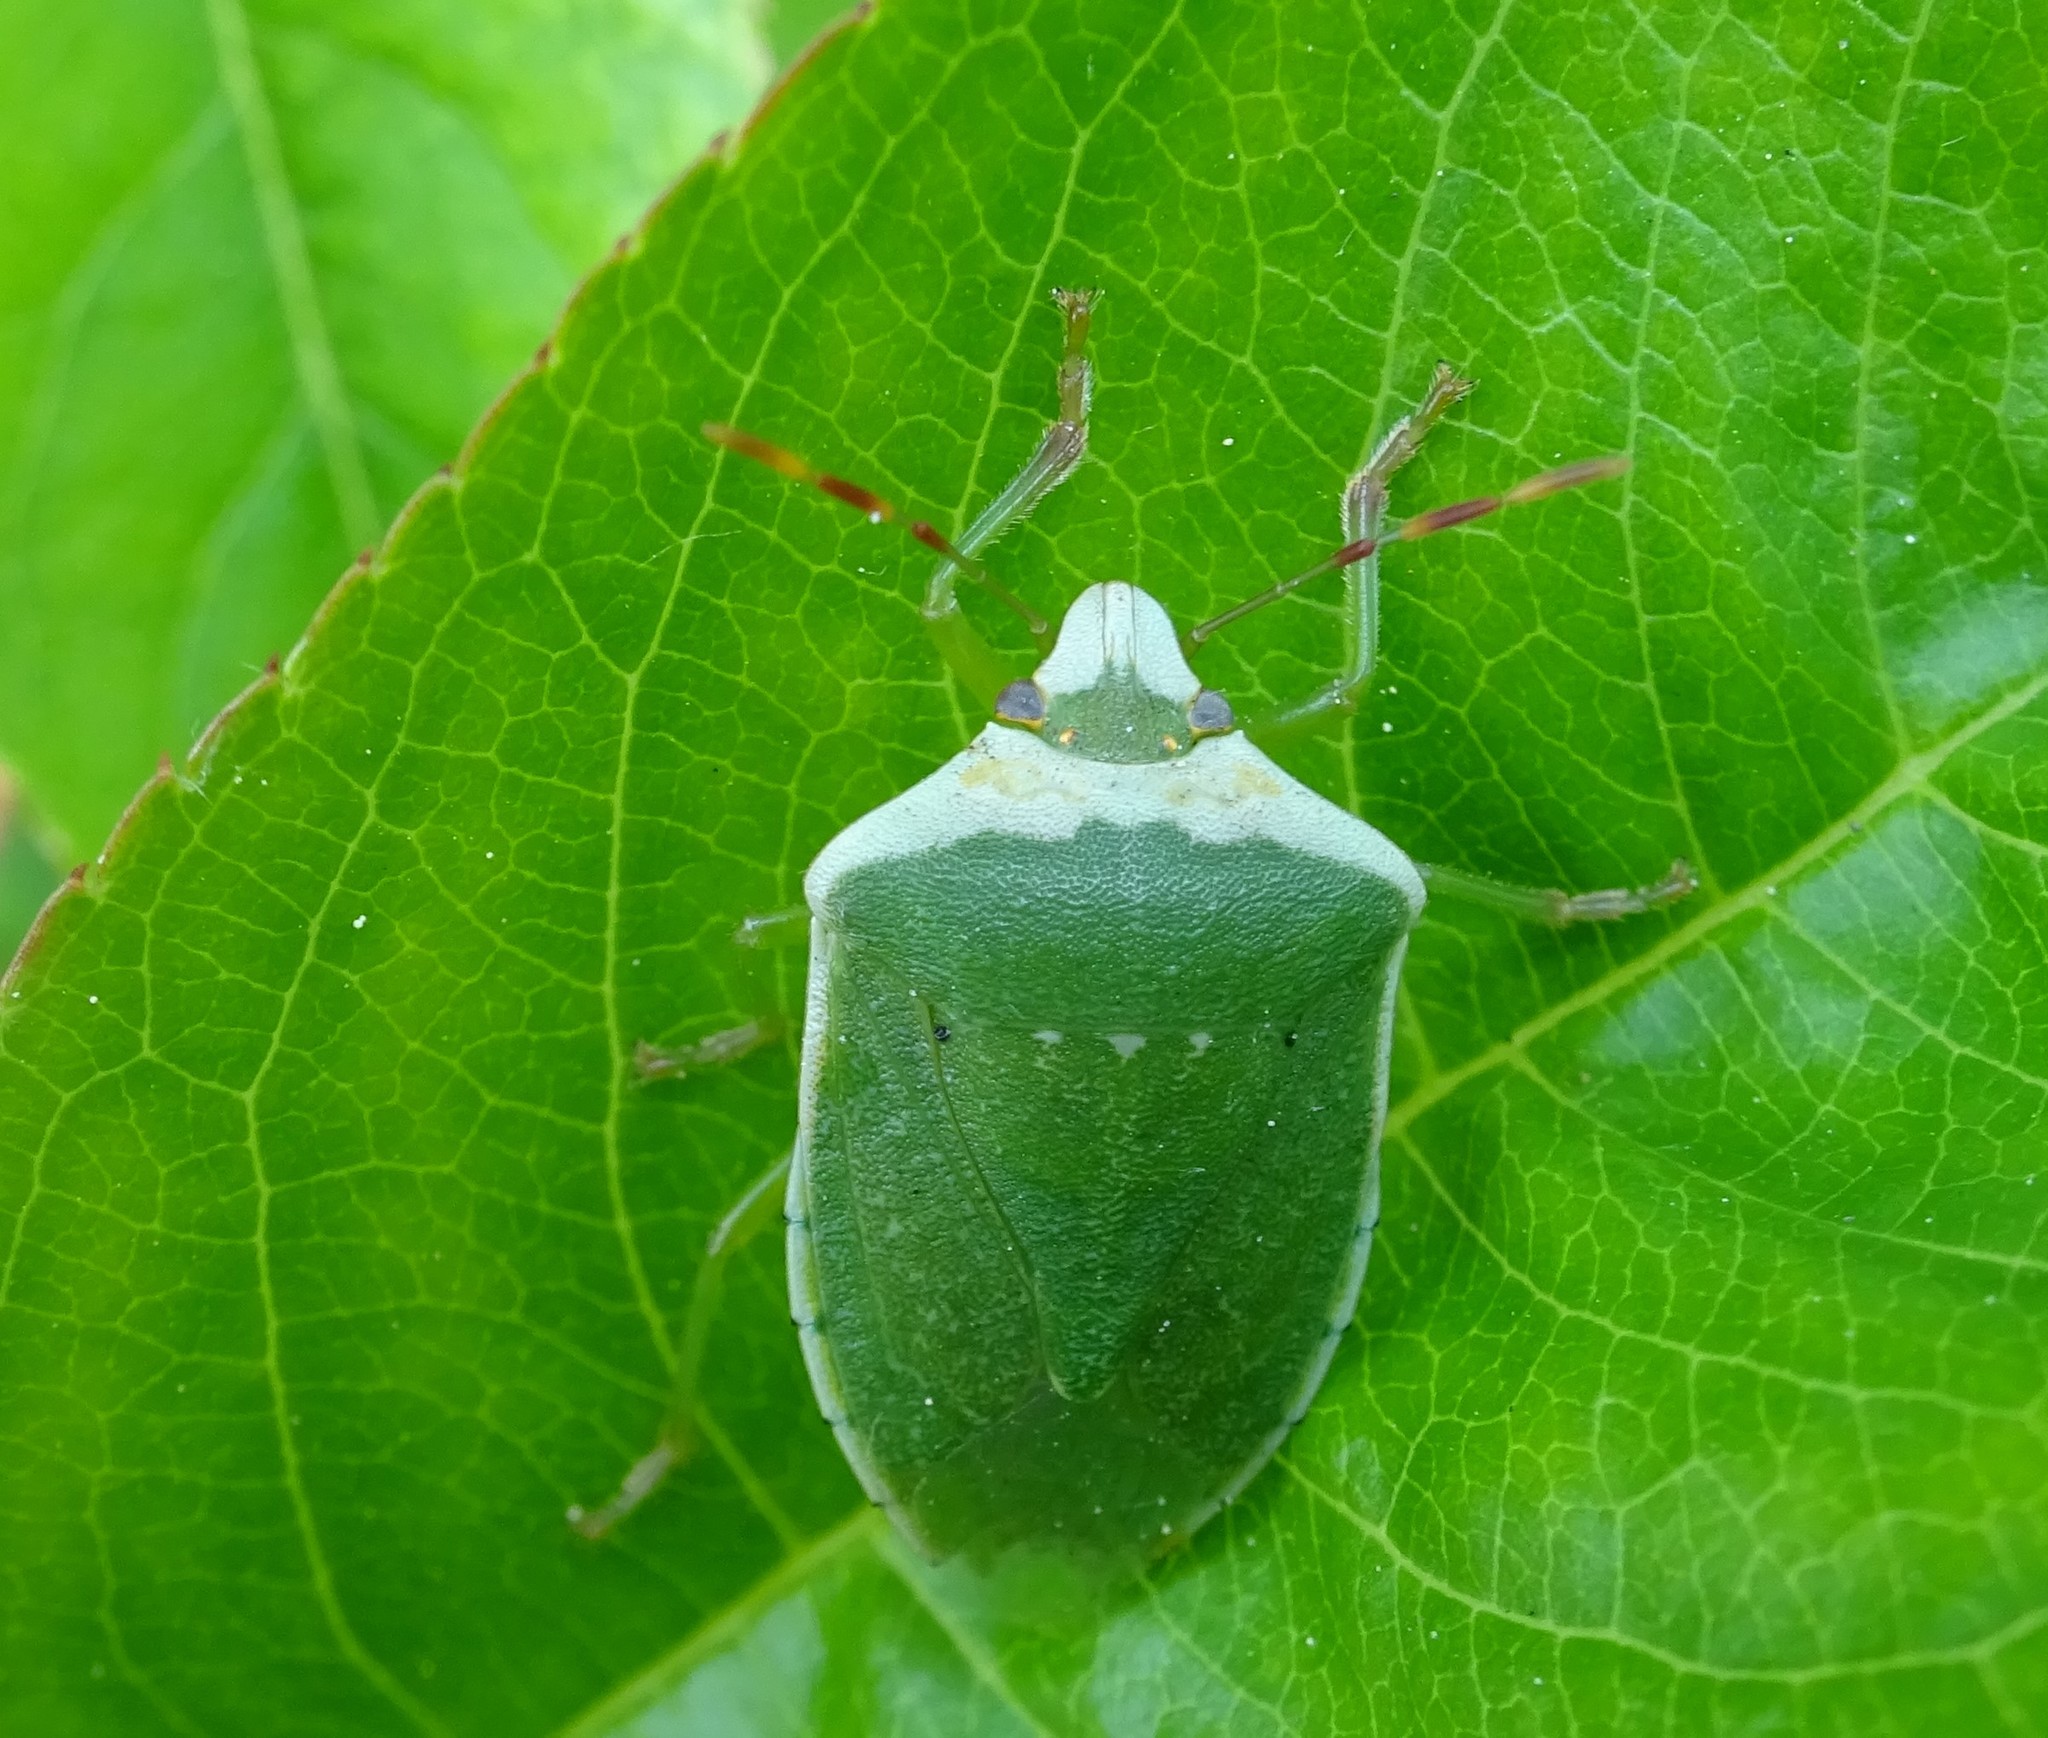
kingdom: Animalia
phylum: Arthropoda
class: Insecta
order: Hemiptera
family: Pentatomidae
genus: Nezara
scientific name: Nezara viridula
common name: Southern green stink bug
